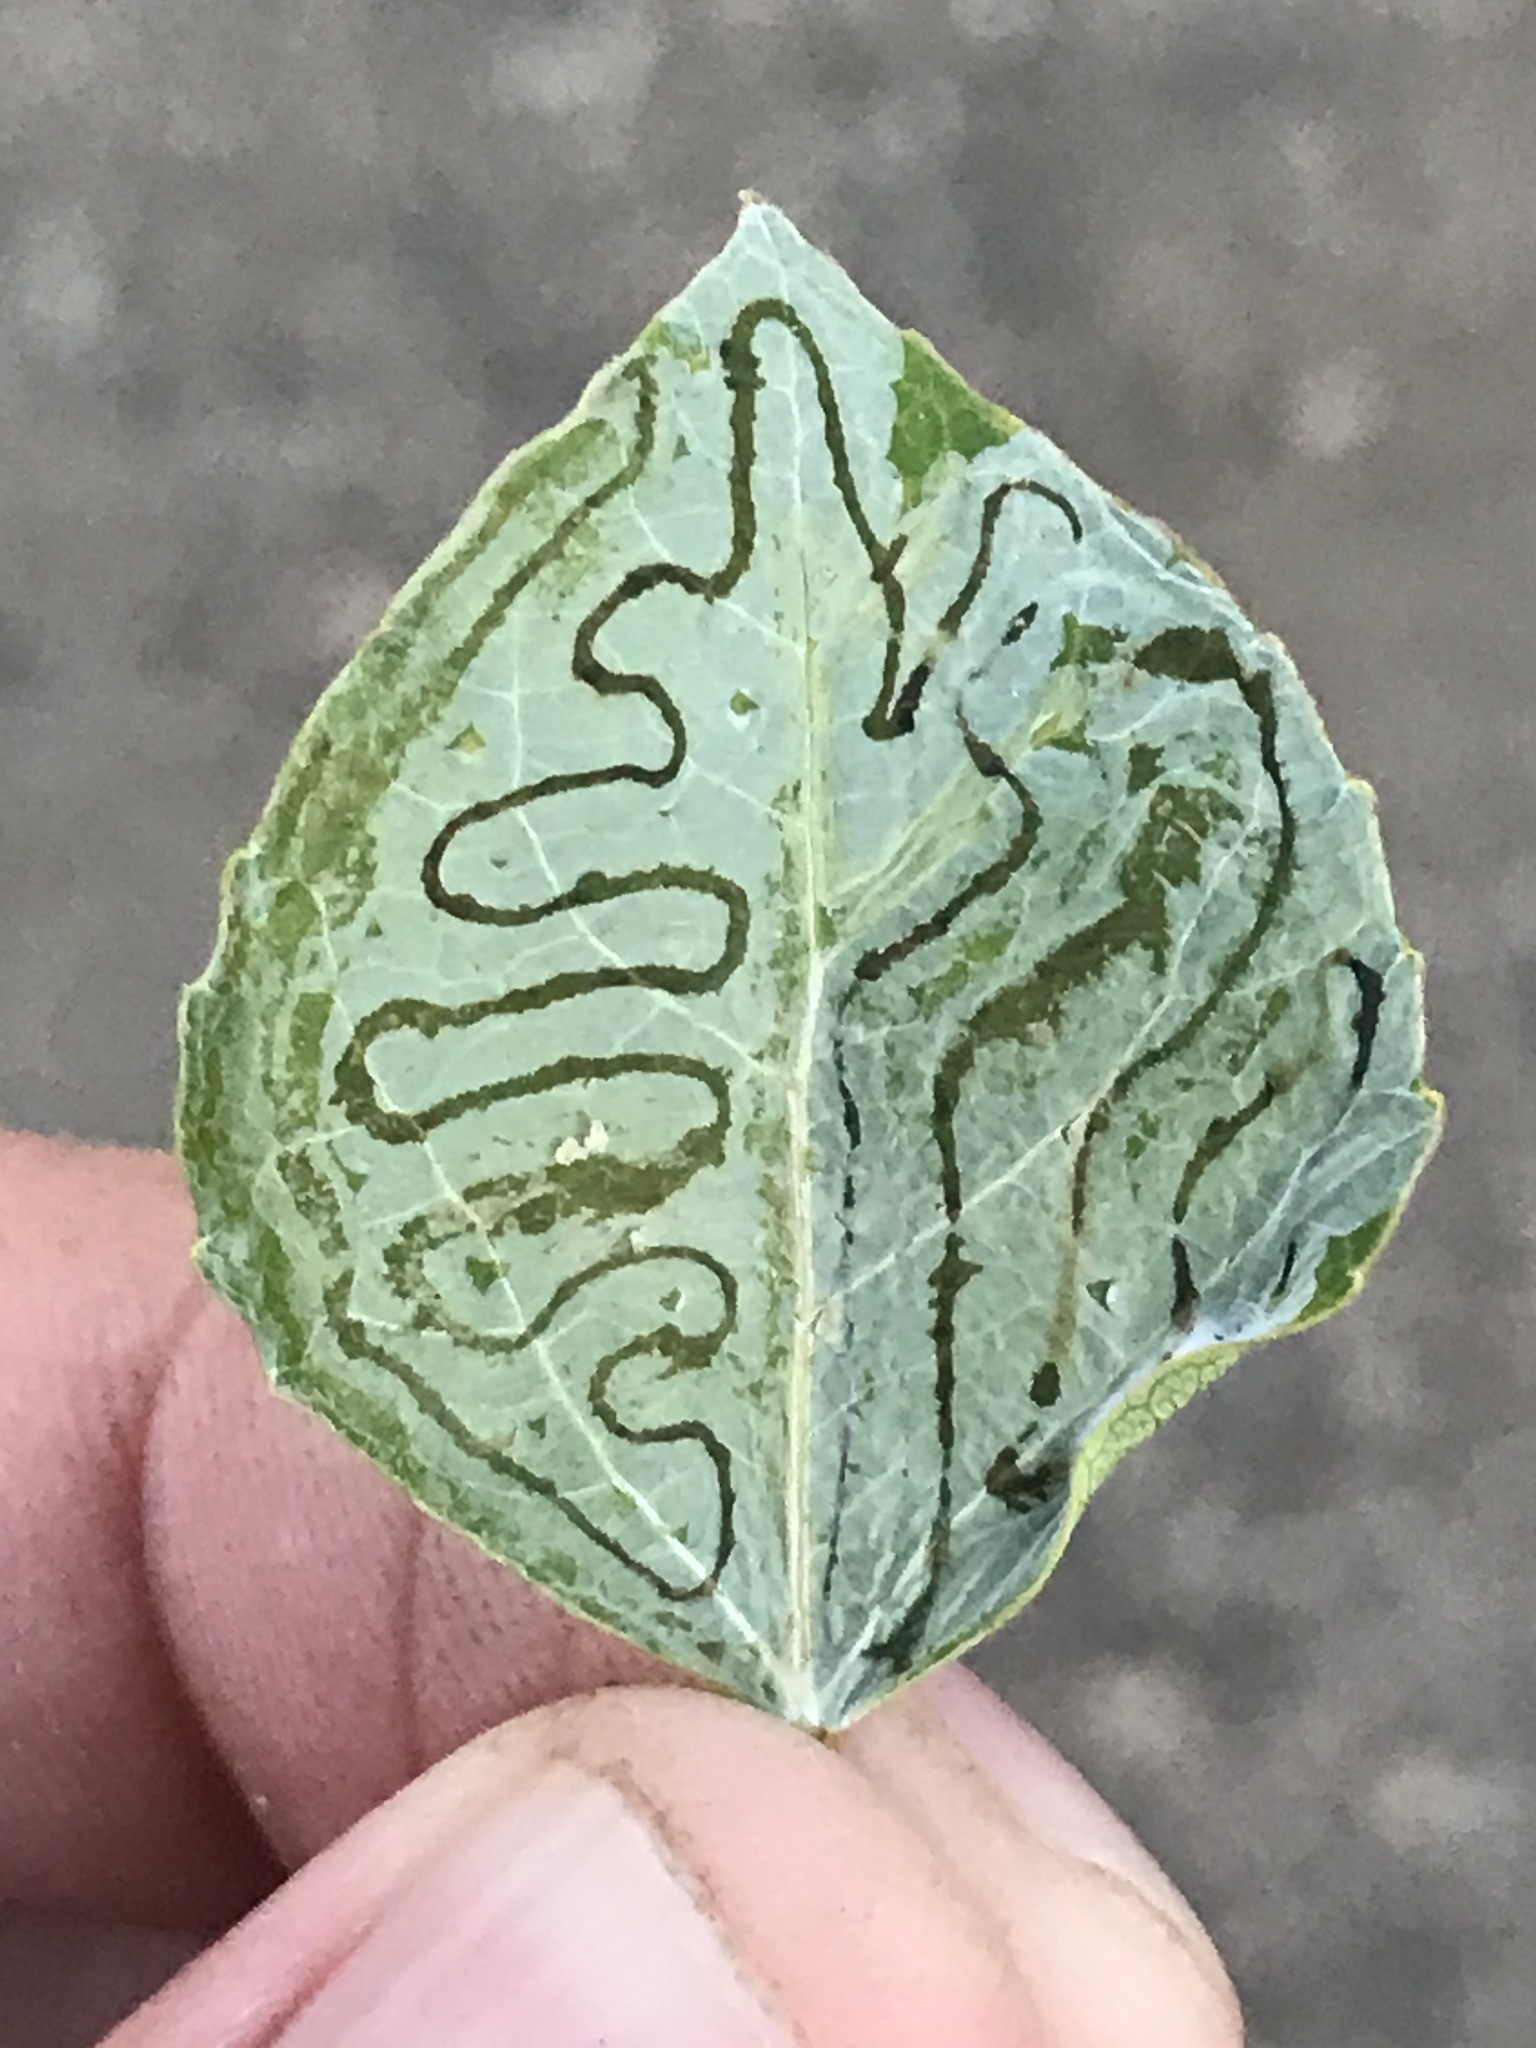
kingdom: Animalia
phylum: Arthropoda
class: Insecta
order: Lepidoptera
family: Gracillariidae
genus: Phyllocnistis
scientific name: Phyllocnistis populiella
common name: Aspen serpentine leafminer moth
